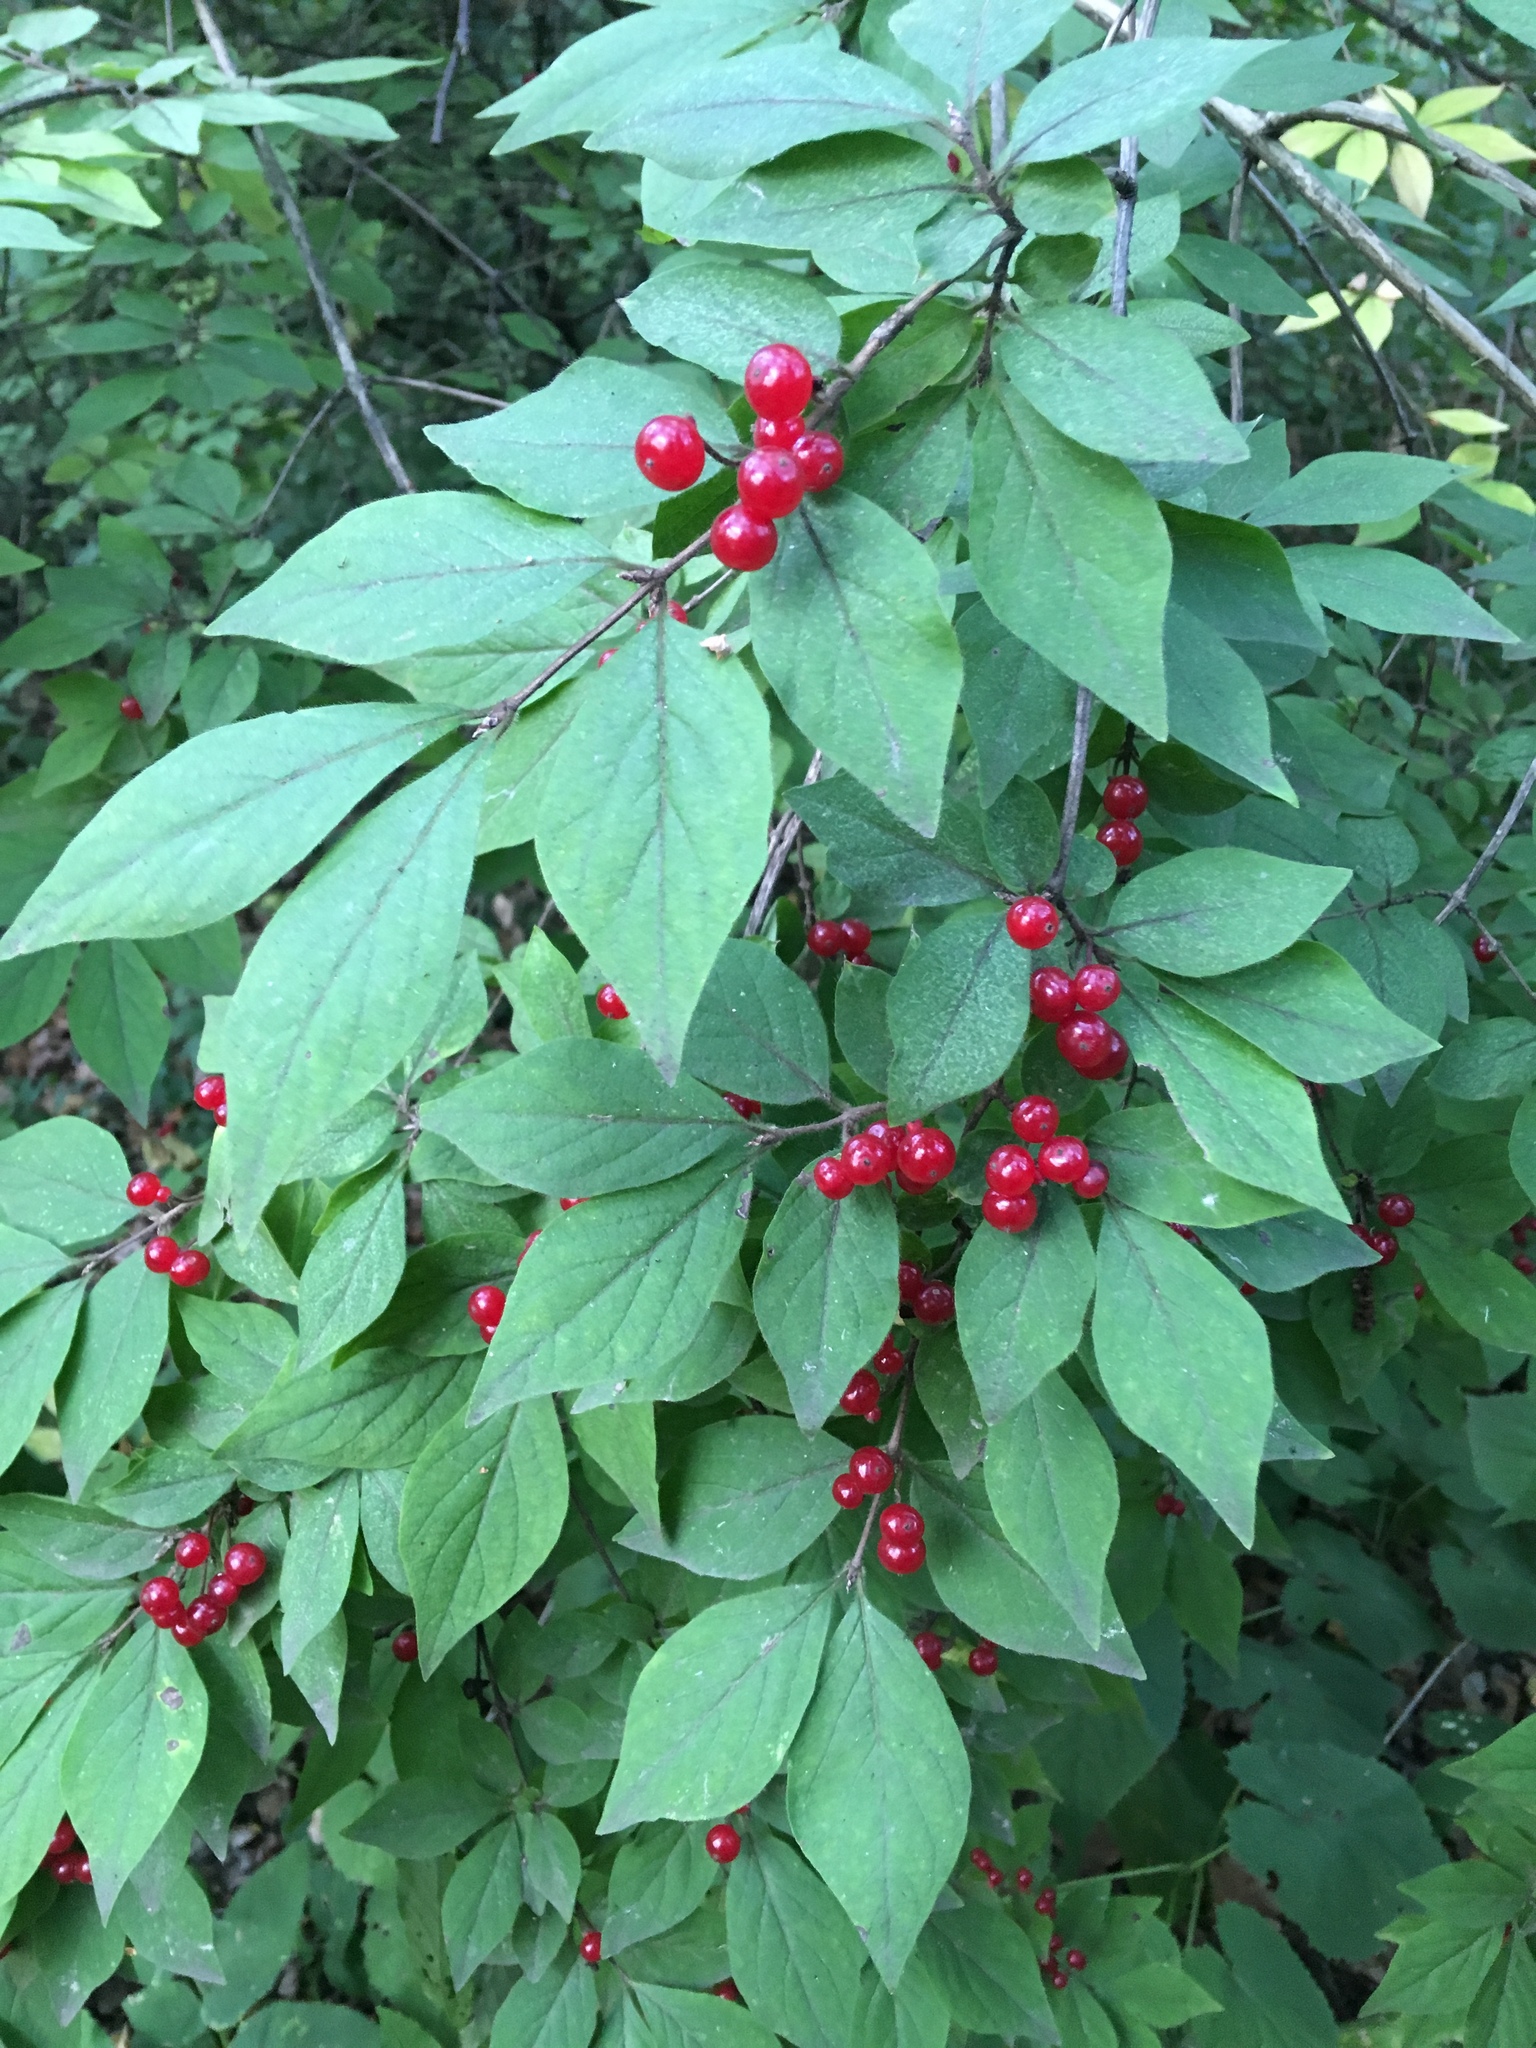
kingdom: Plantae
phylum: Tracheophyta
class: Magnoliopsida
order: Dipsacales
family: Caprifoliaceae
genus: Lonicera
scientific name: Lonicera xylosteum
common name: Fly honeysuckle
